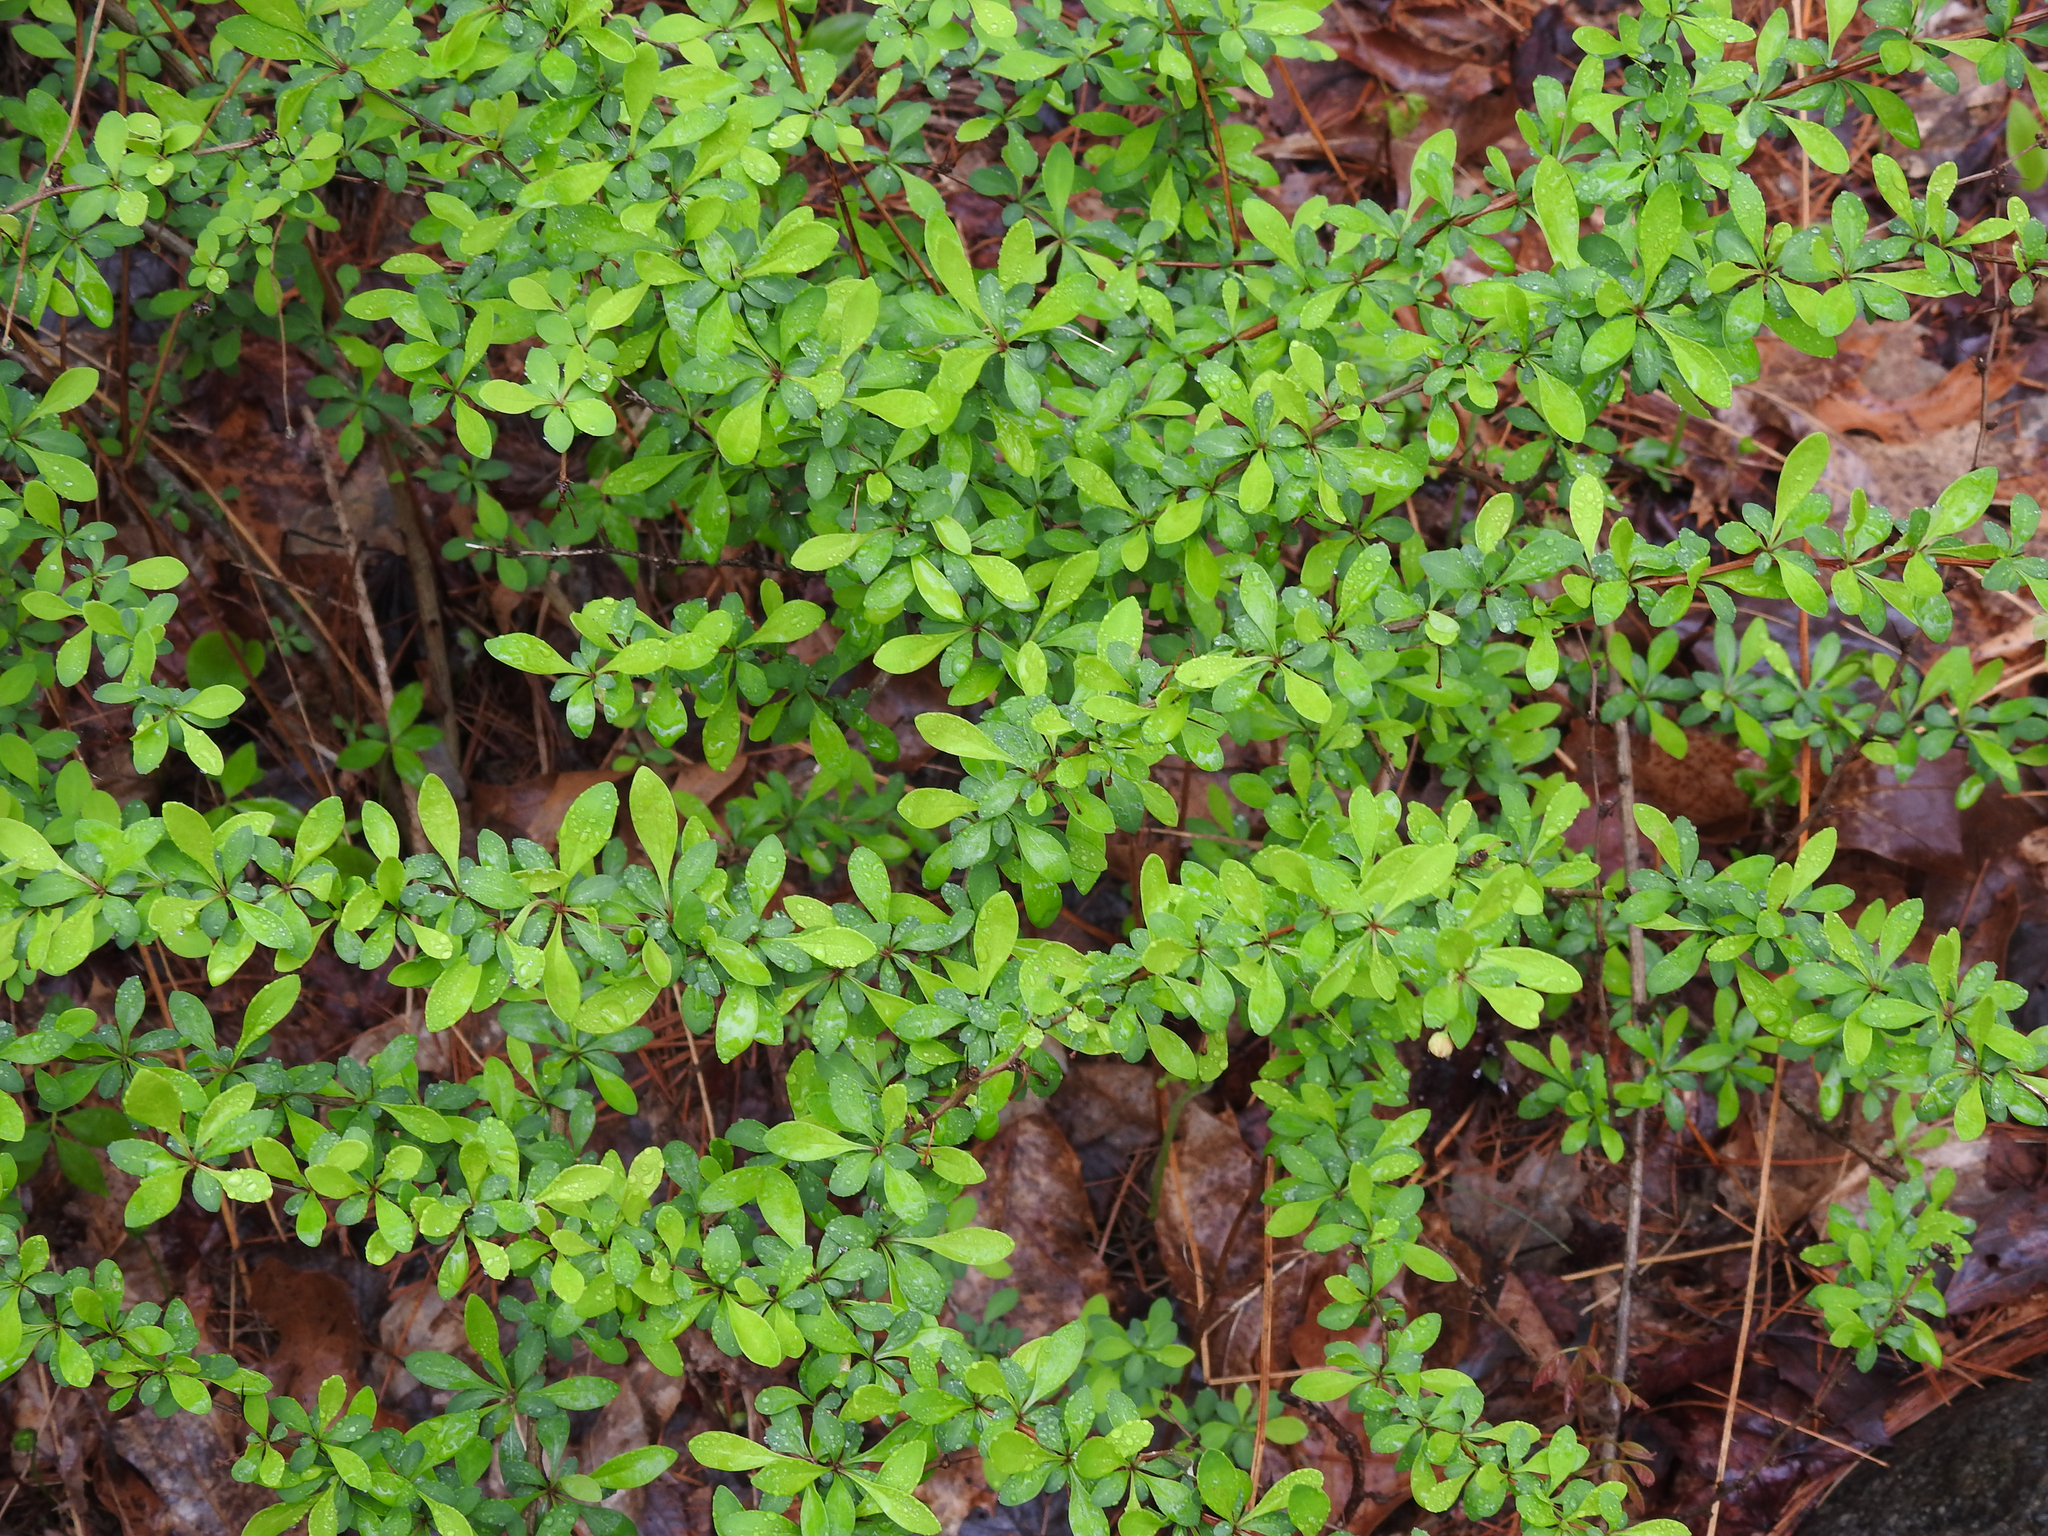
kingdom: Plantae
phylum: Tracheophyta
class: Magnoliopsida
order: Ranunculales
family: Berberidaceae
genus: Berberis
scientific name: Berberis thunbergii
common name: Japanese barberry
